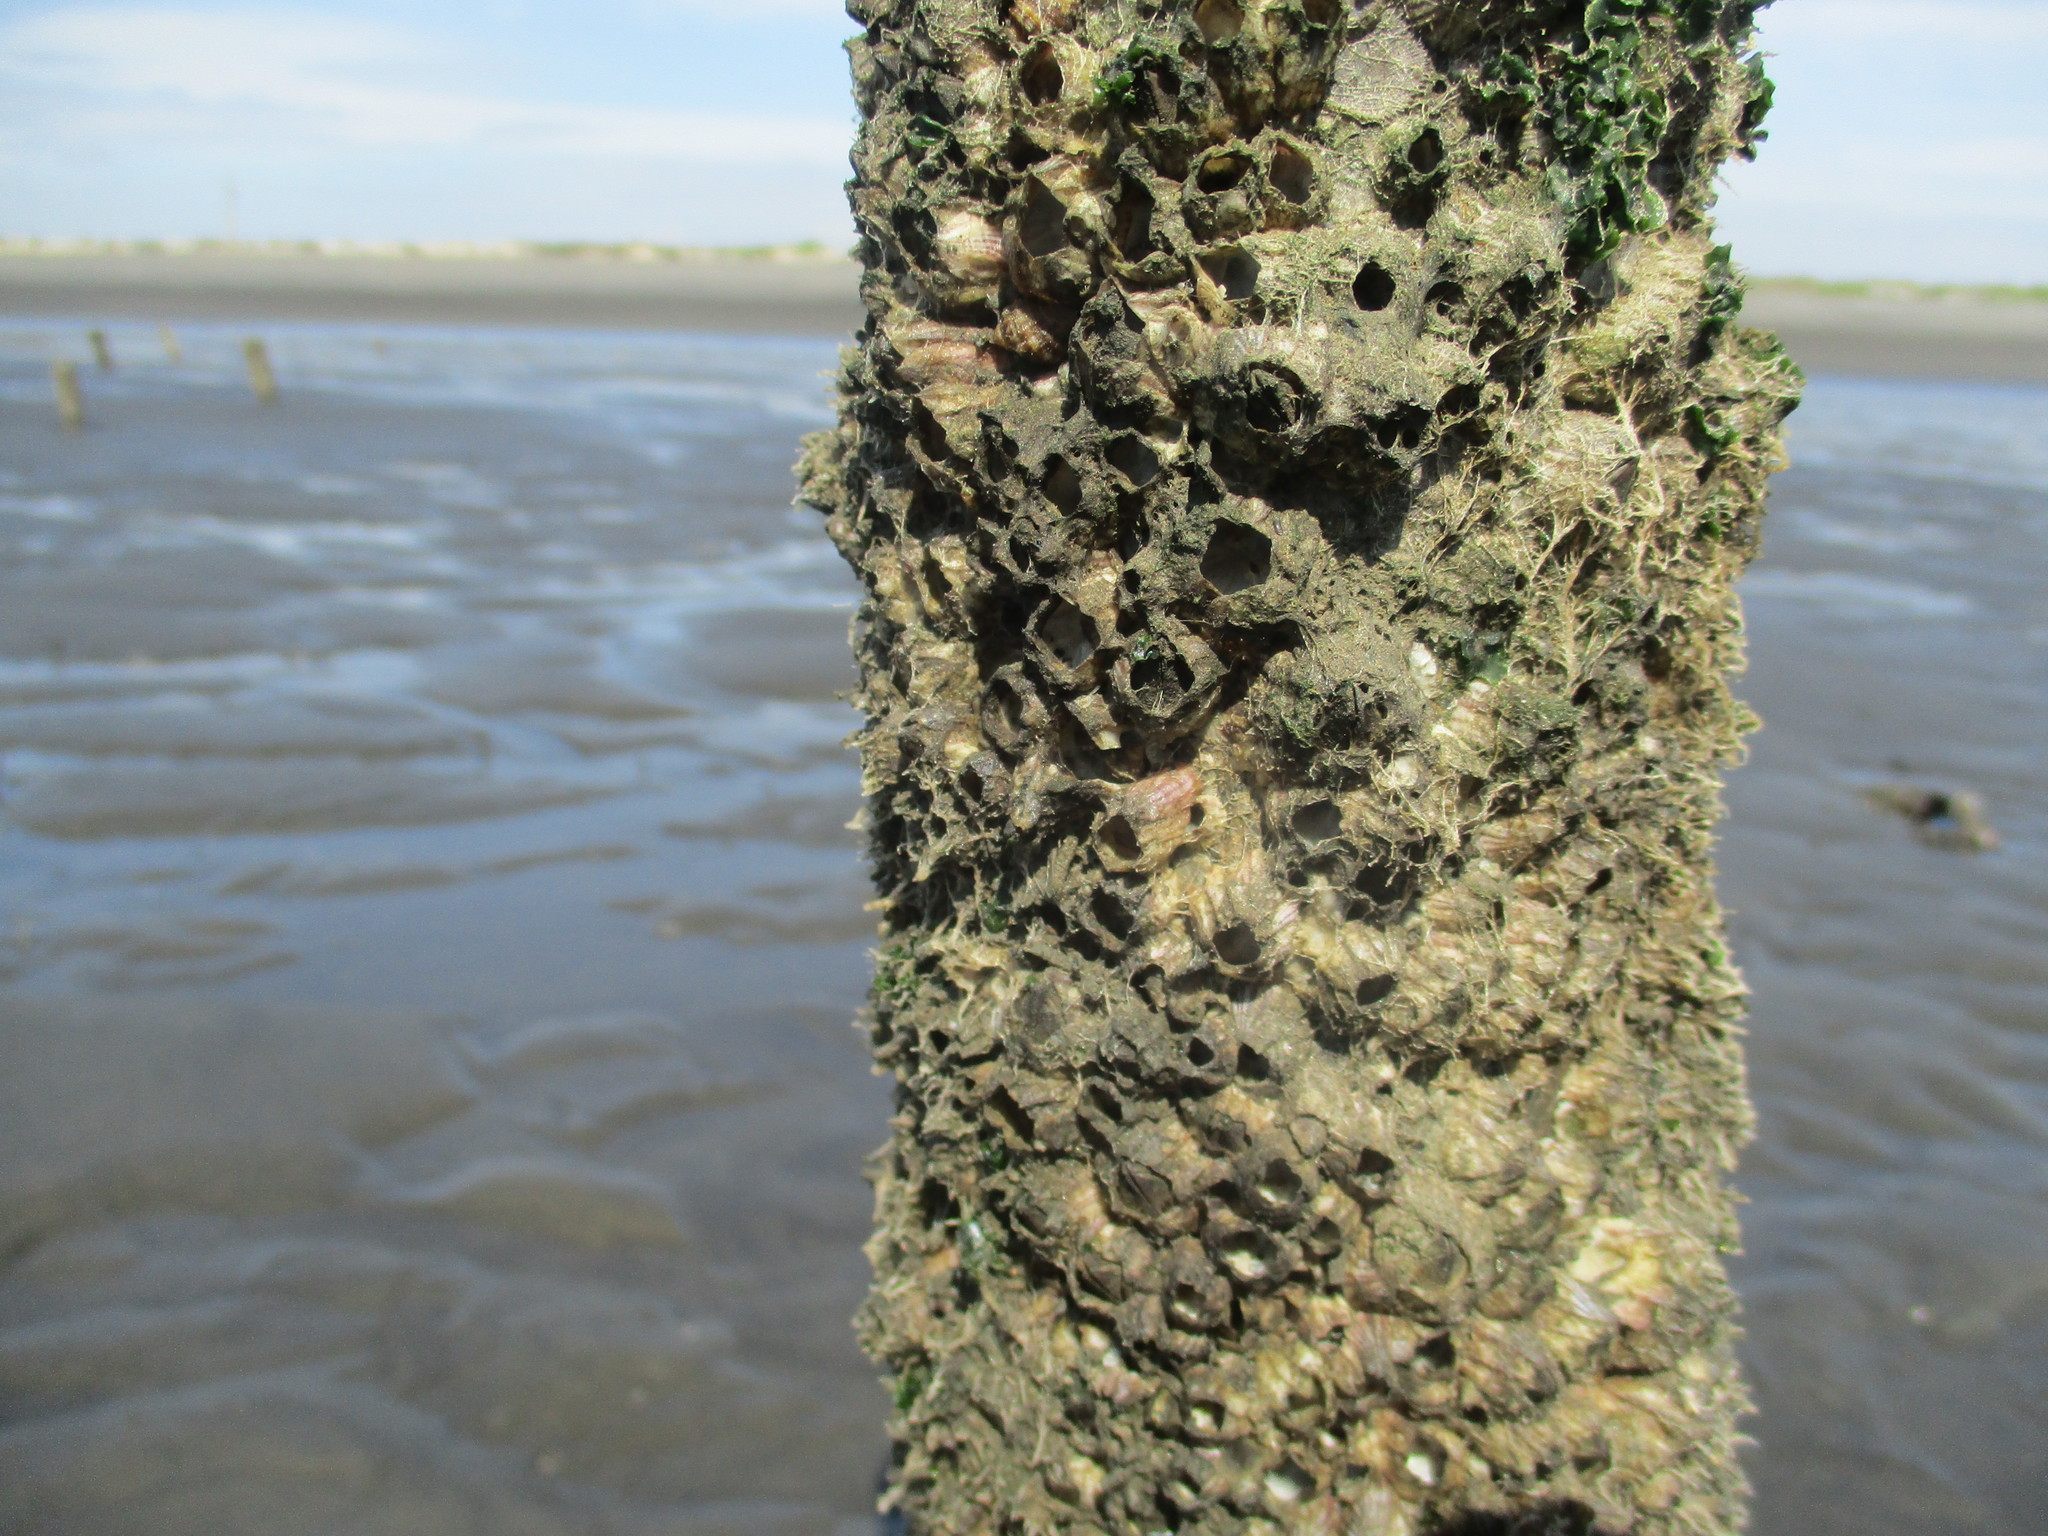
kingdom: Animalia
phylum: Arthropoda
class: Maxillopoda
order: Sessilia
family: Balanidae
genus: Amphibalanus
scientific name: Amphibalanus amphitrite
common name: Striped acorn barnacle
